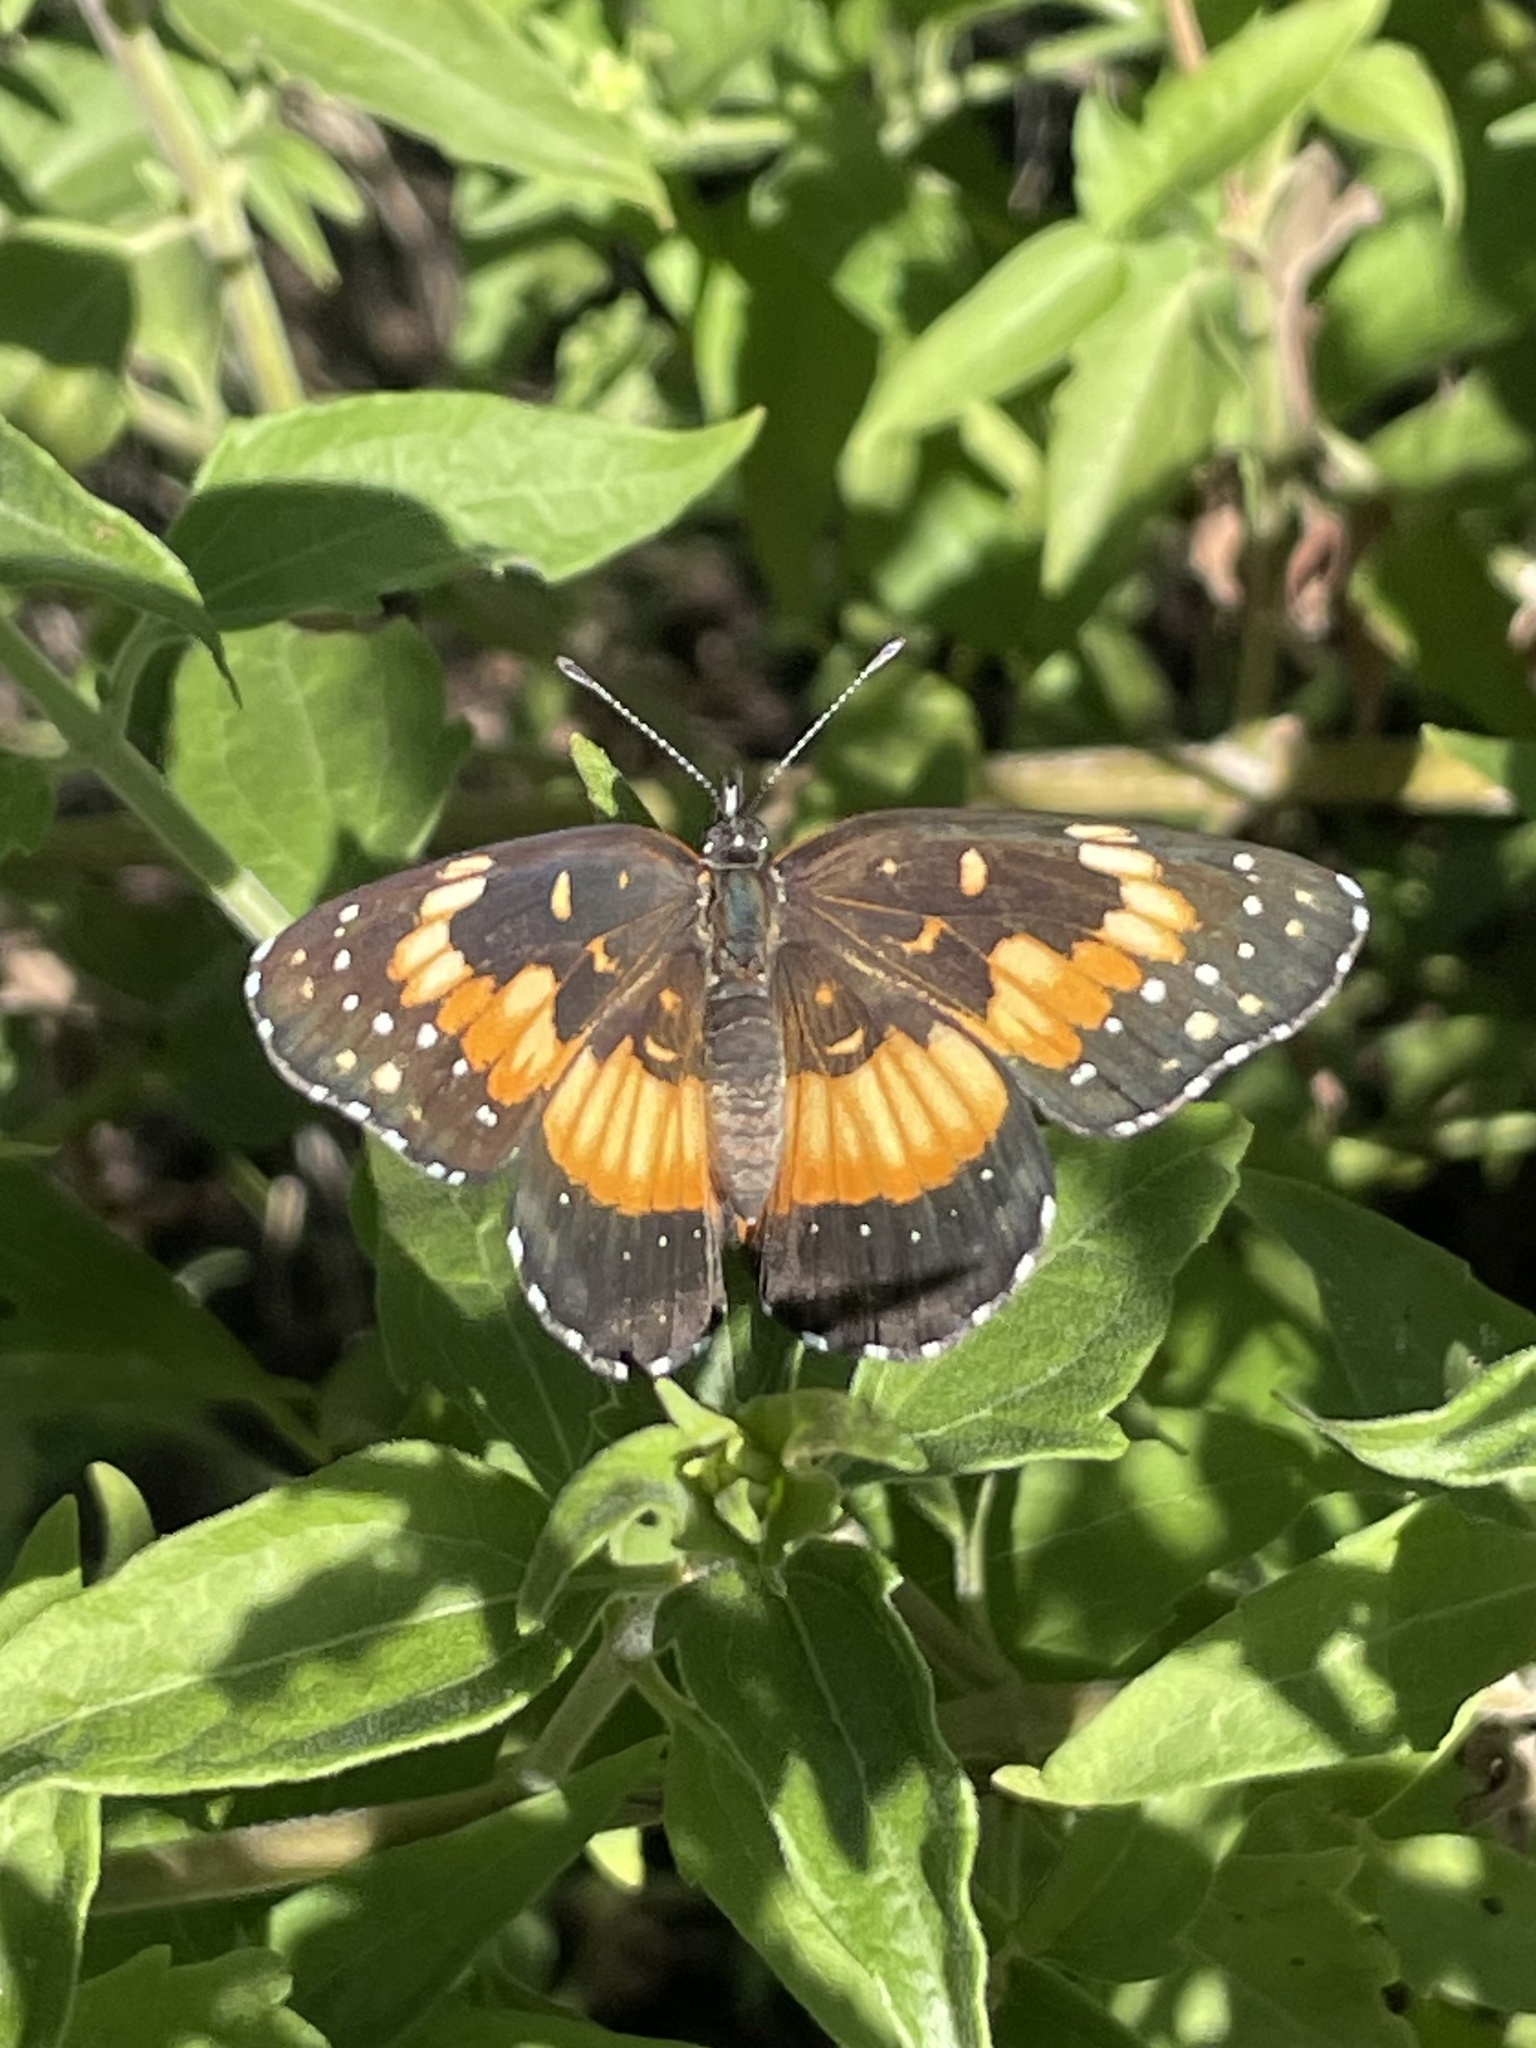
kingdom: Animalia
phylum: Arthropoda
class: Insecta
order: Lepidoptera
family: Nymphalidae
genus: Chlosyne
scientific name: Chlosyne lacinia
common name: Bordered patch
